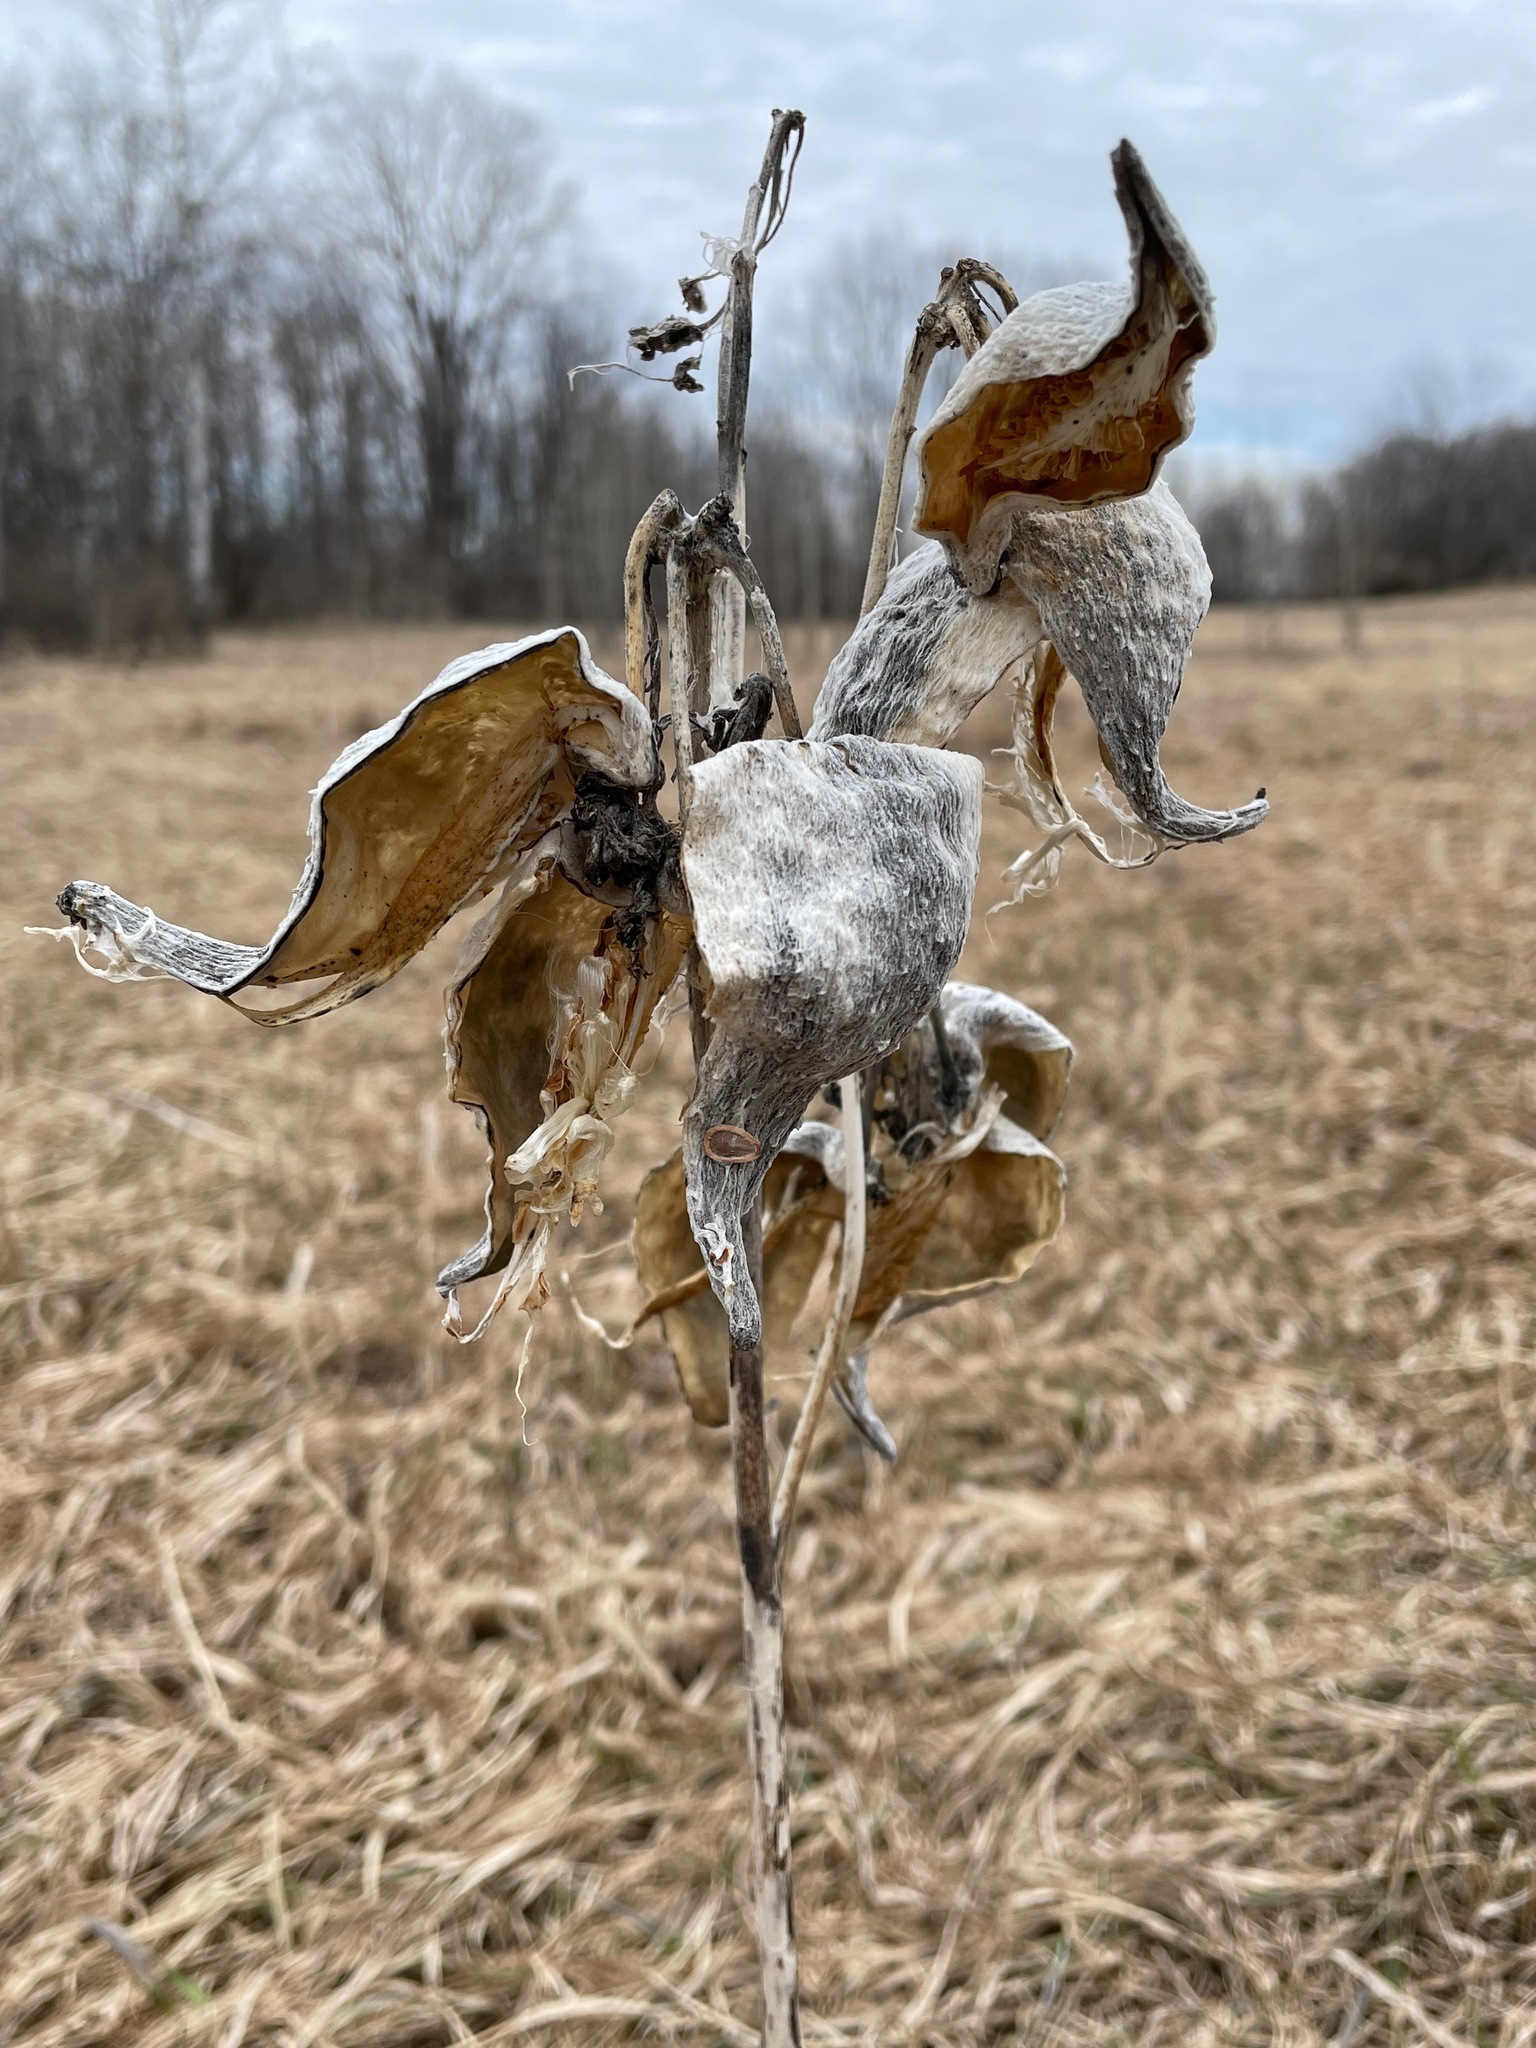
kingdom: Plantae
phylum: Tracheophyta
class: Magnoliopsida
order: Gentianales
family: Apocynaceae
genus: Asclepias
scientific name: Asclepias syriaca
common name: Common milkweed
